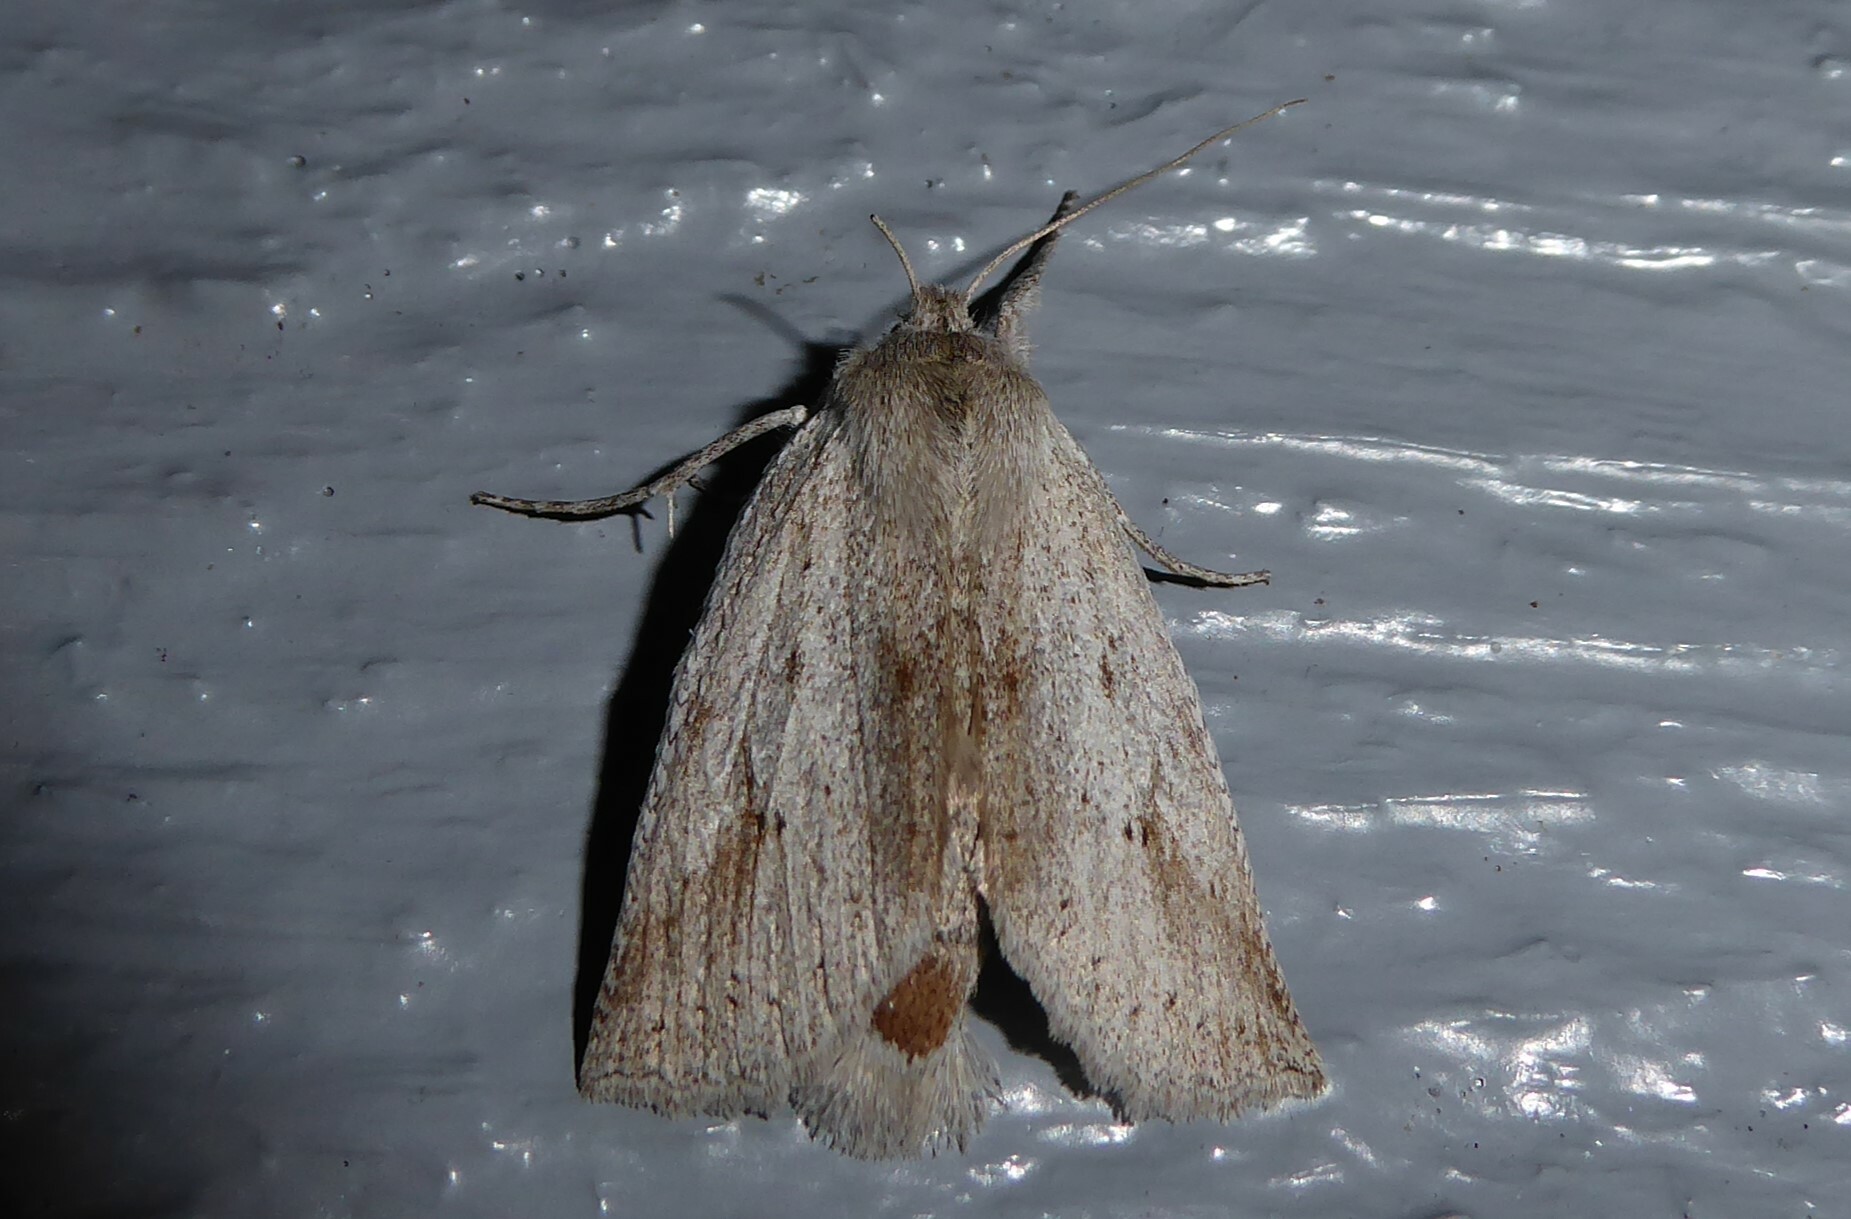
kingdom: Animalia
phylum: Arthropoda
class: Insecta
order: Lepidoptera
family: Geometridae
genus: Declana
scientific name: Declana leptomera
